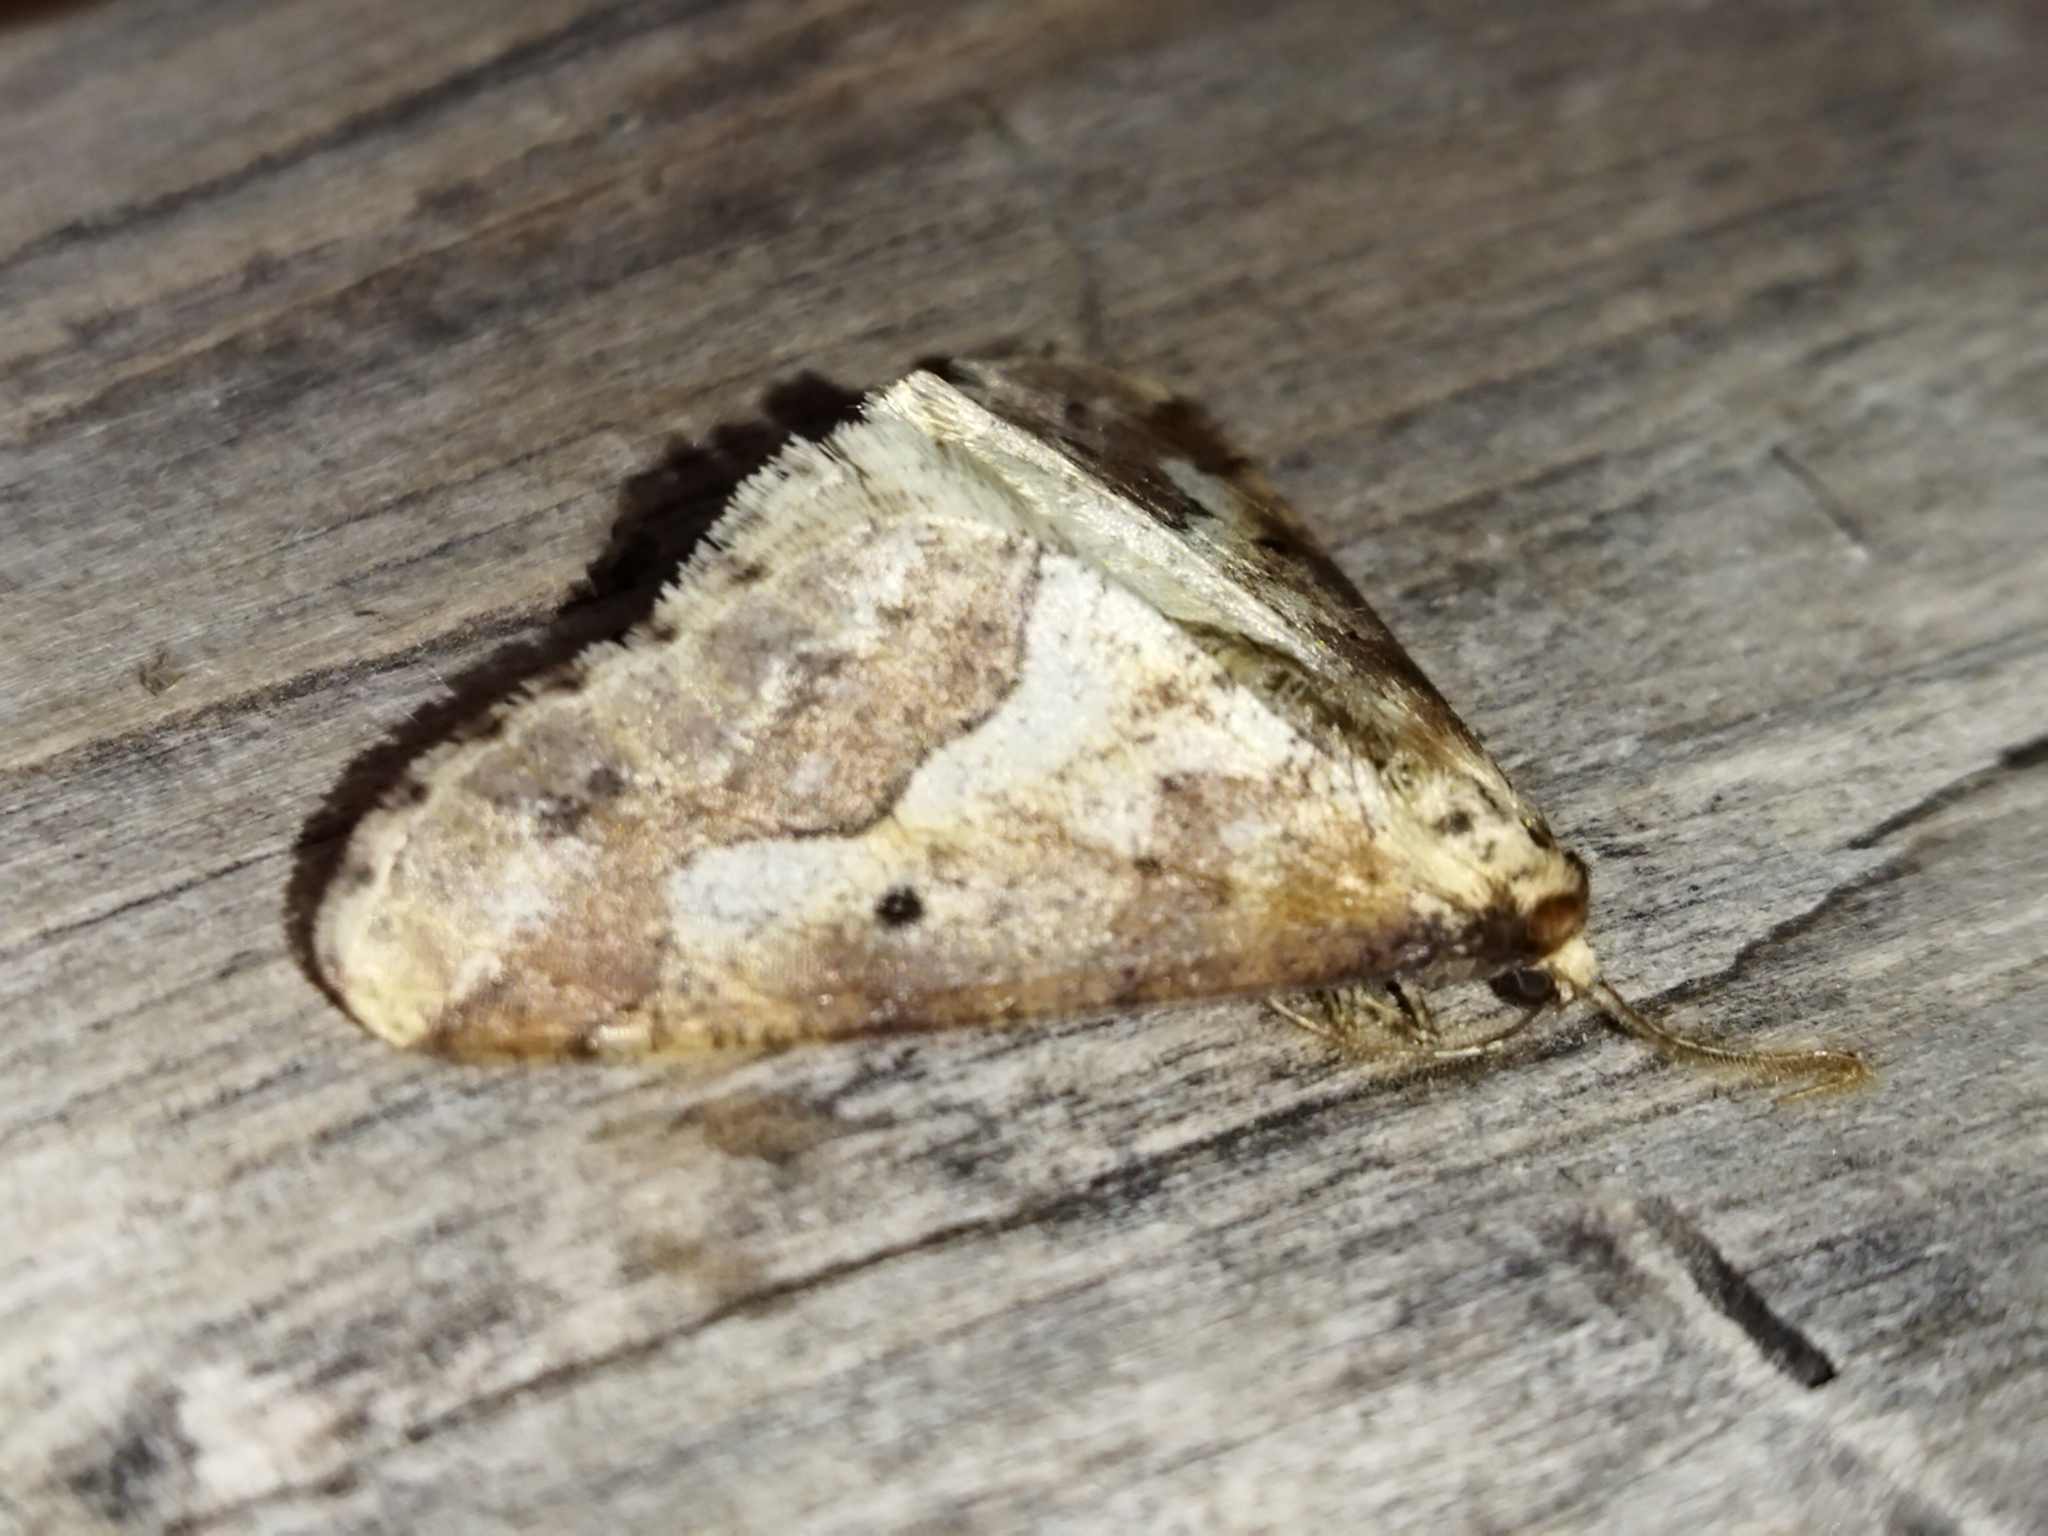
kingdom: Animalia
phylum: Arthropoda
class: Insecta
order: Lepidoptera
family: Geometridae
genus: Erannis
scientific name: Erannis defoliaria
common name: Mottled umber
